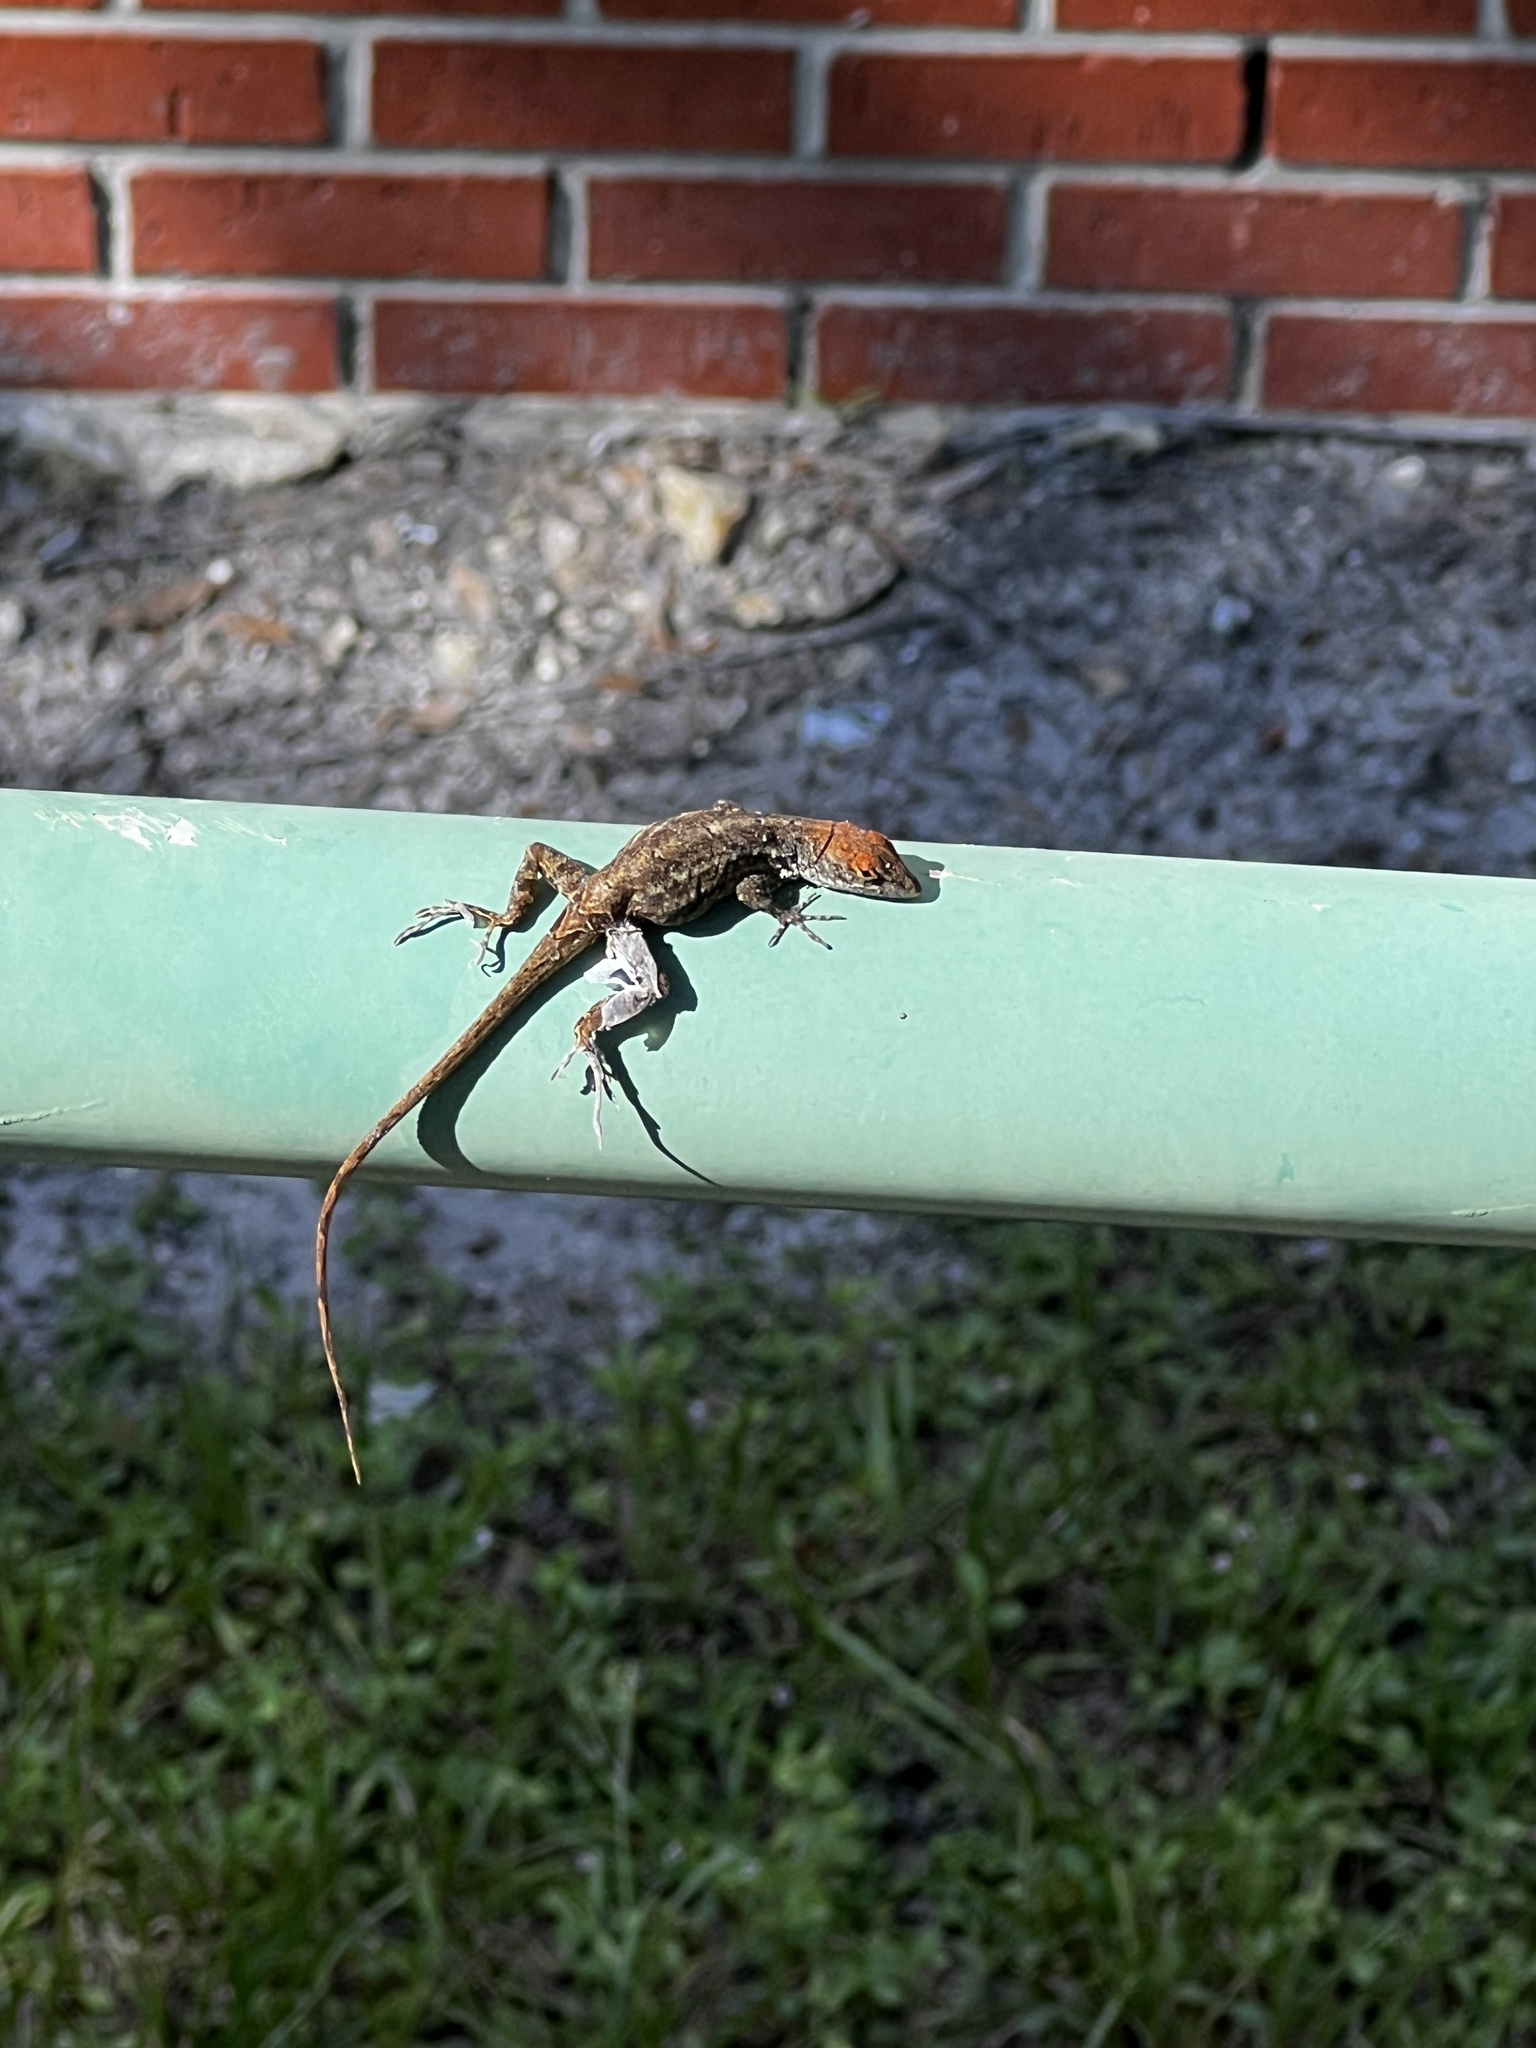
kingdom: Animalia
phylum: Chordata
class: Squamata
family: Dactyloidae
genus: Anolis
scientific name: Anolis sagrei
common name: Brown anole
